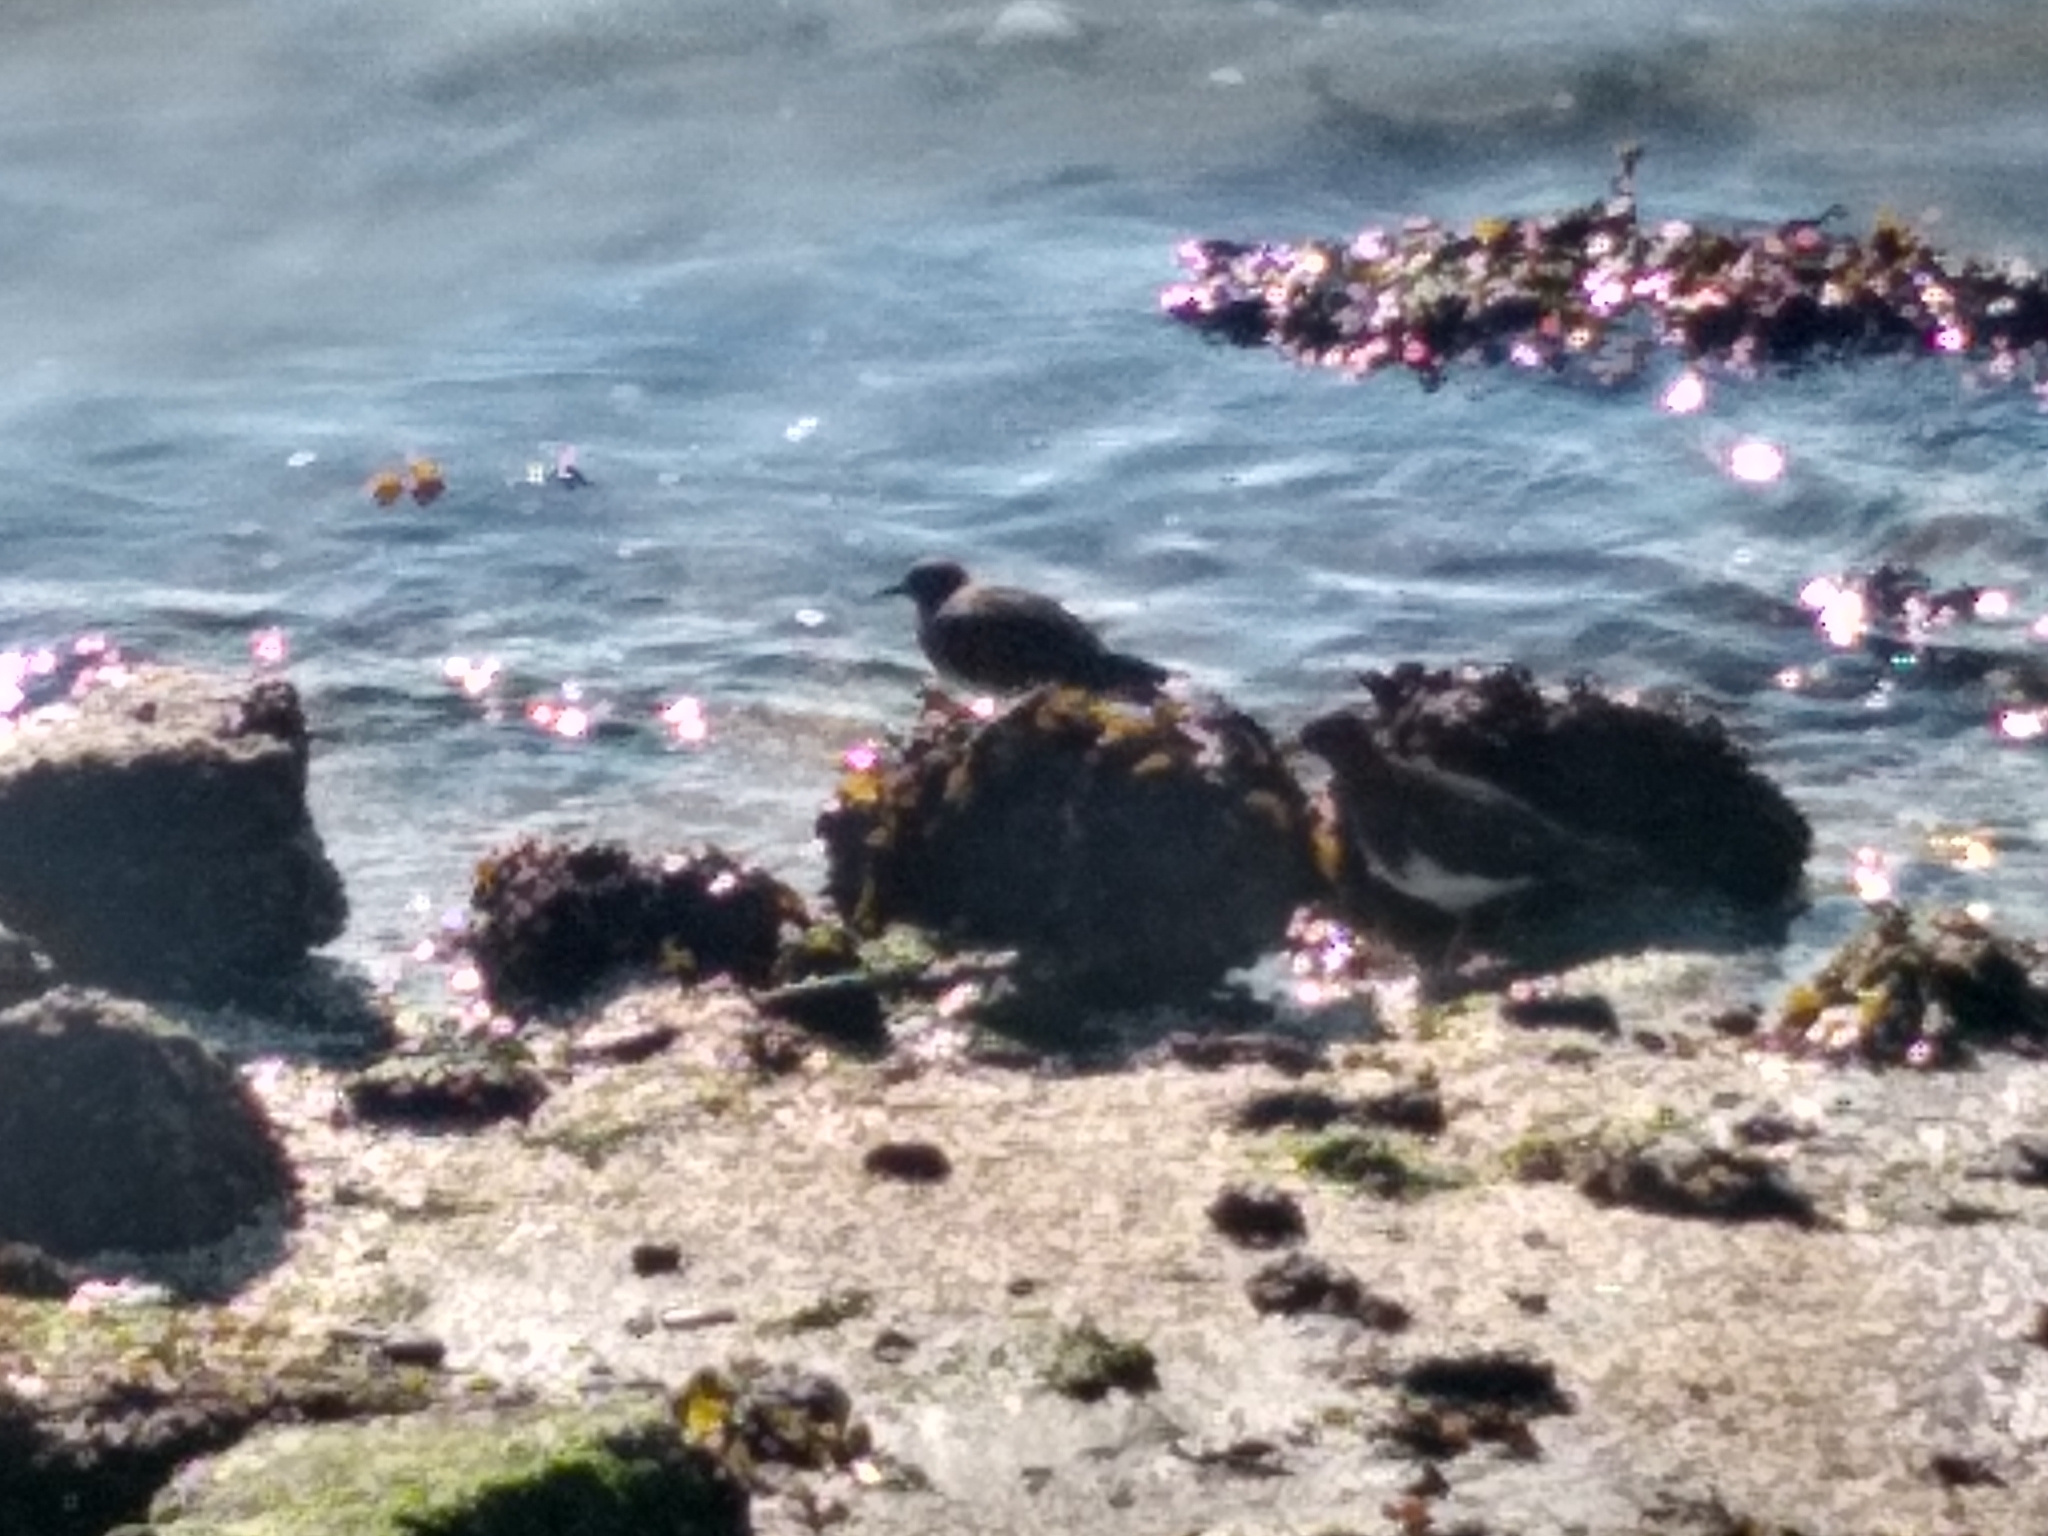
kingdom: Animalia
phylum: Chordata
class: Aves
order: Charadriiformes
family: Scolopacidae
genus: Arenaria
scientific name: Arenaria melanocephala
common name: Black turnstone
